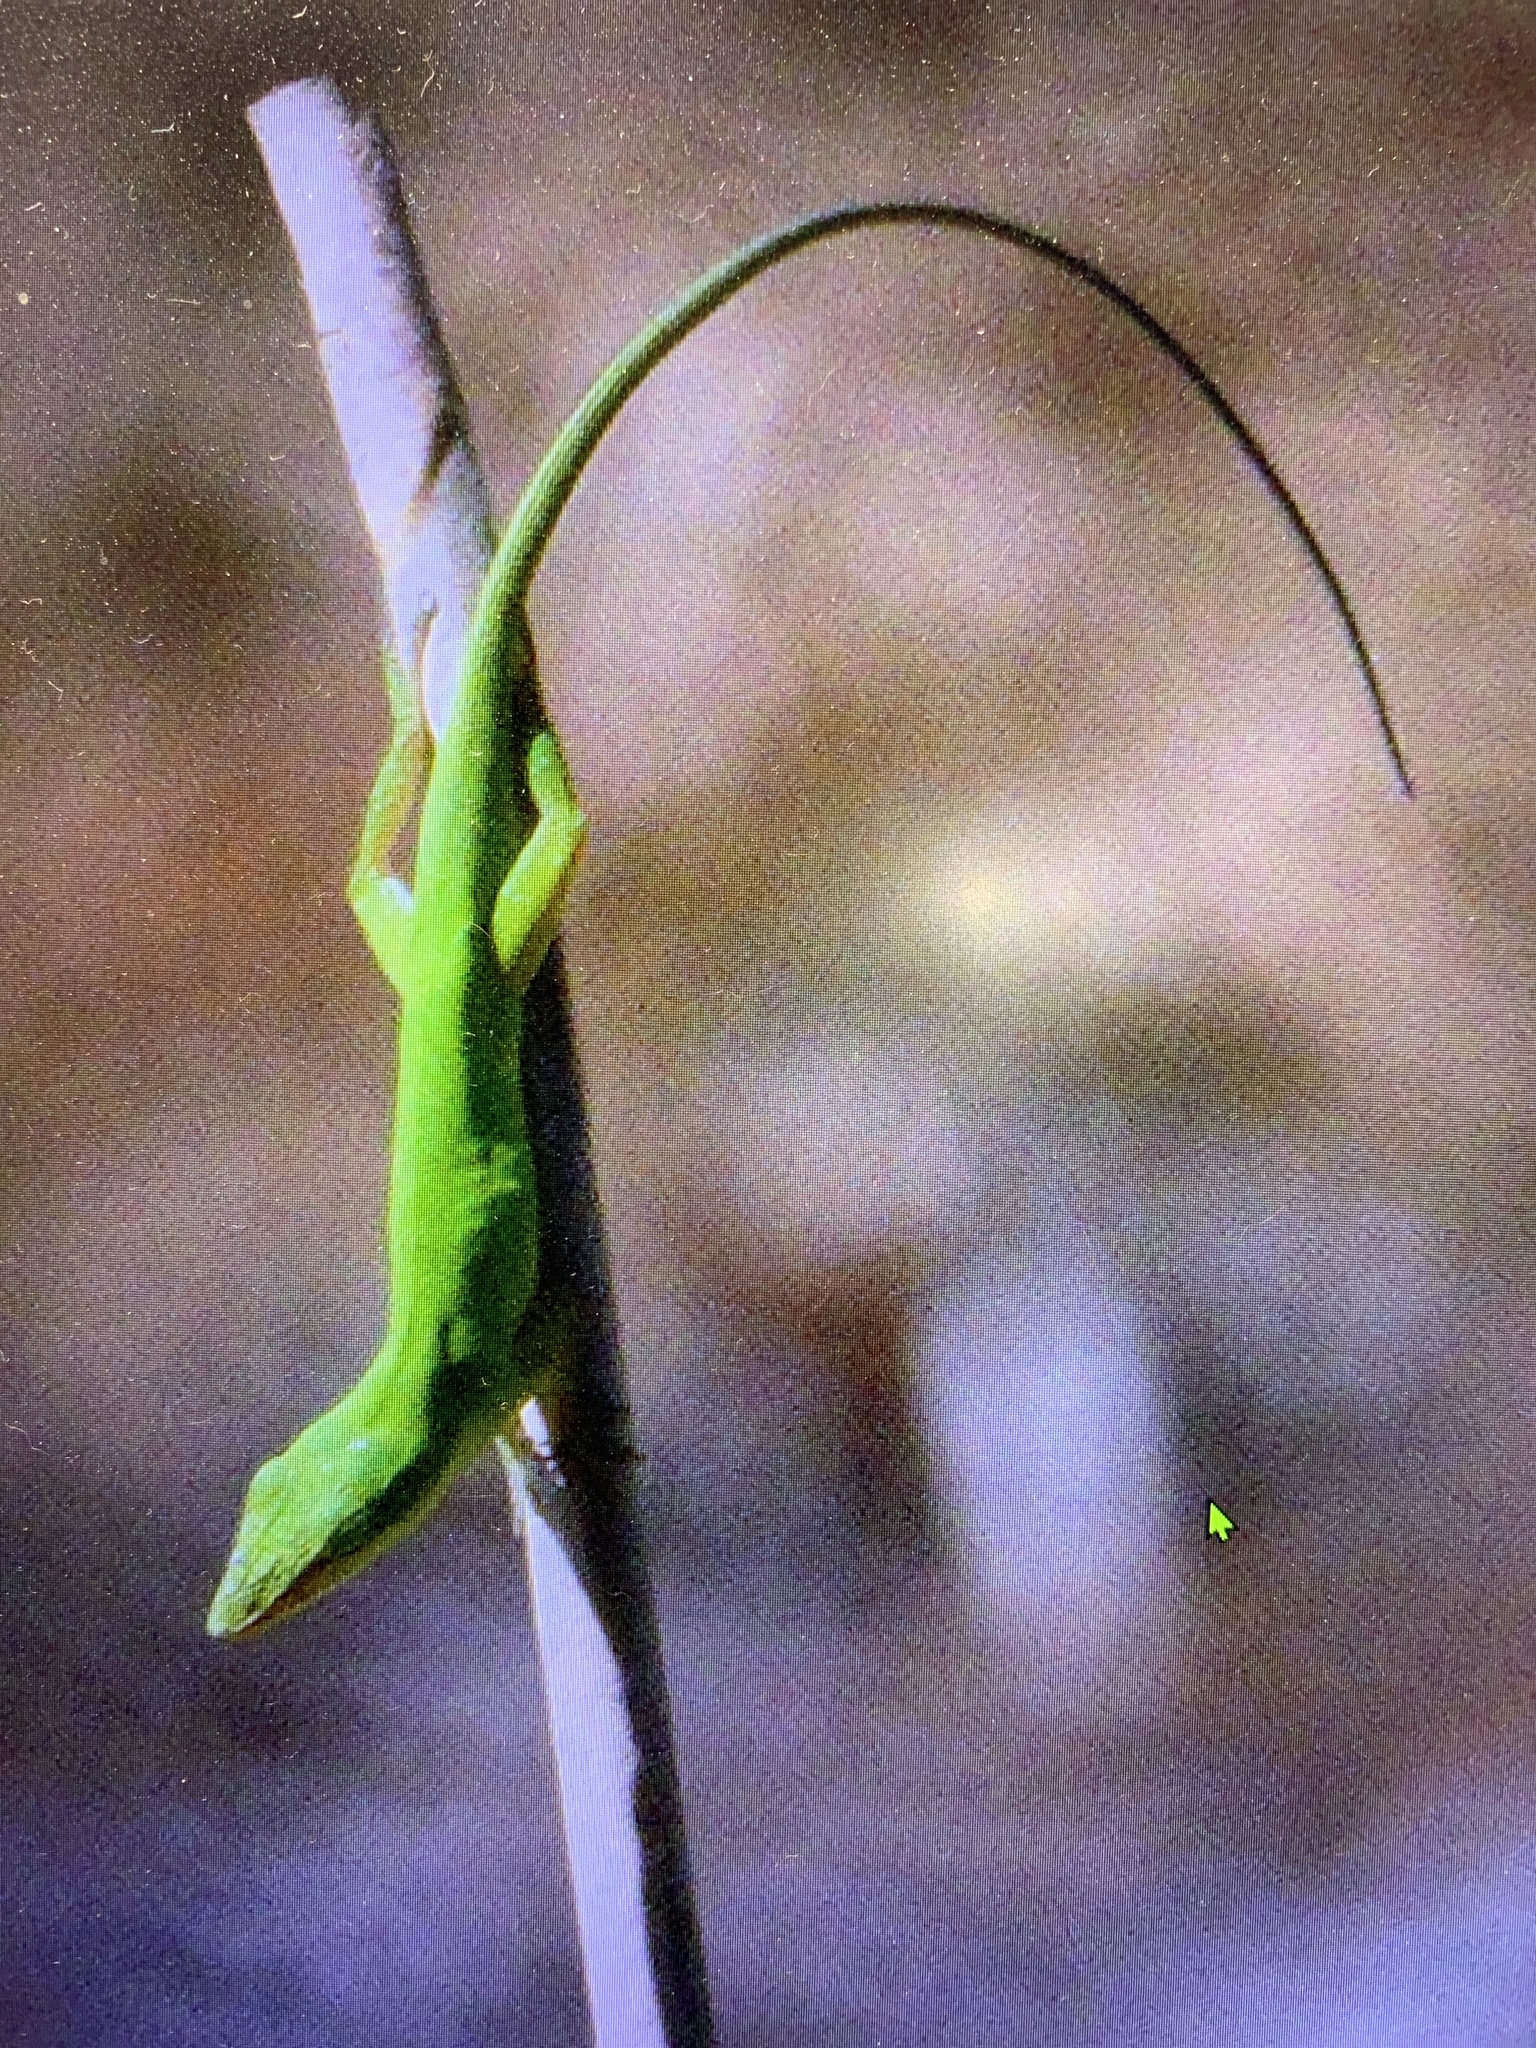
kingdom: Animalia
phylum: Chordata
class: Squamata
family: Dactyloidae
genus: Anolis
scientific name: Anolis carolinensis
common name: Green anole
